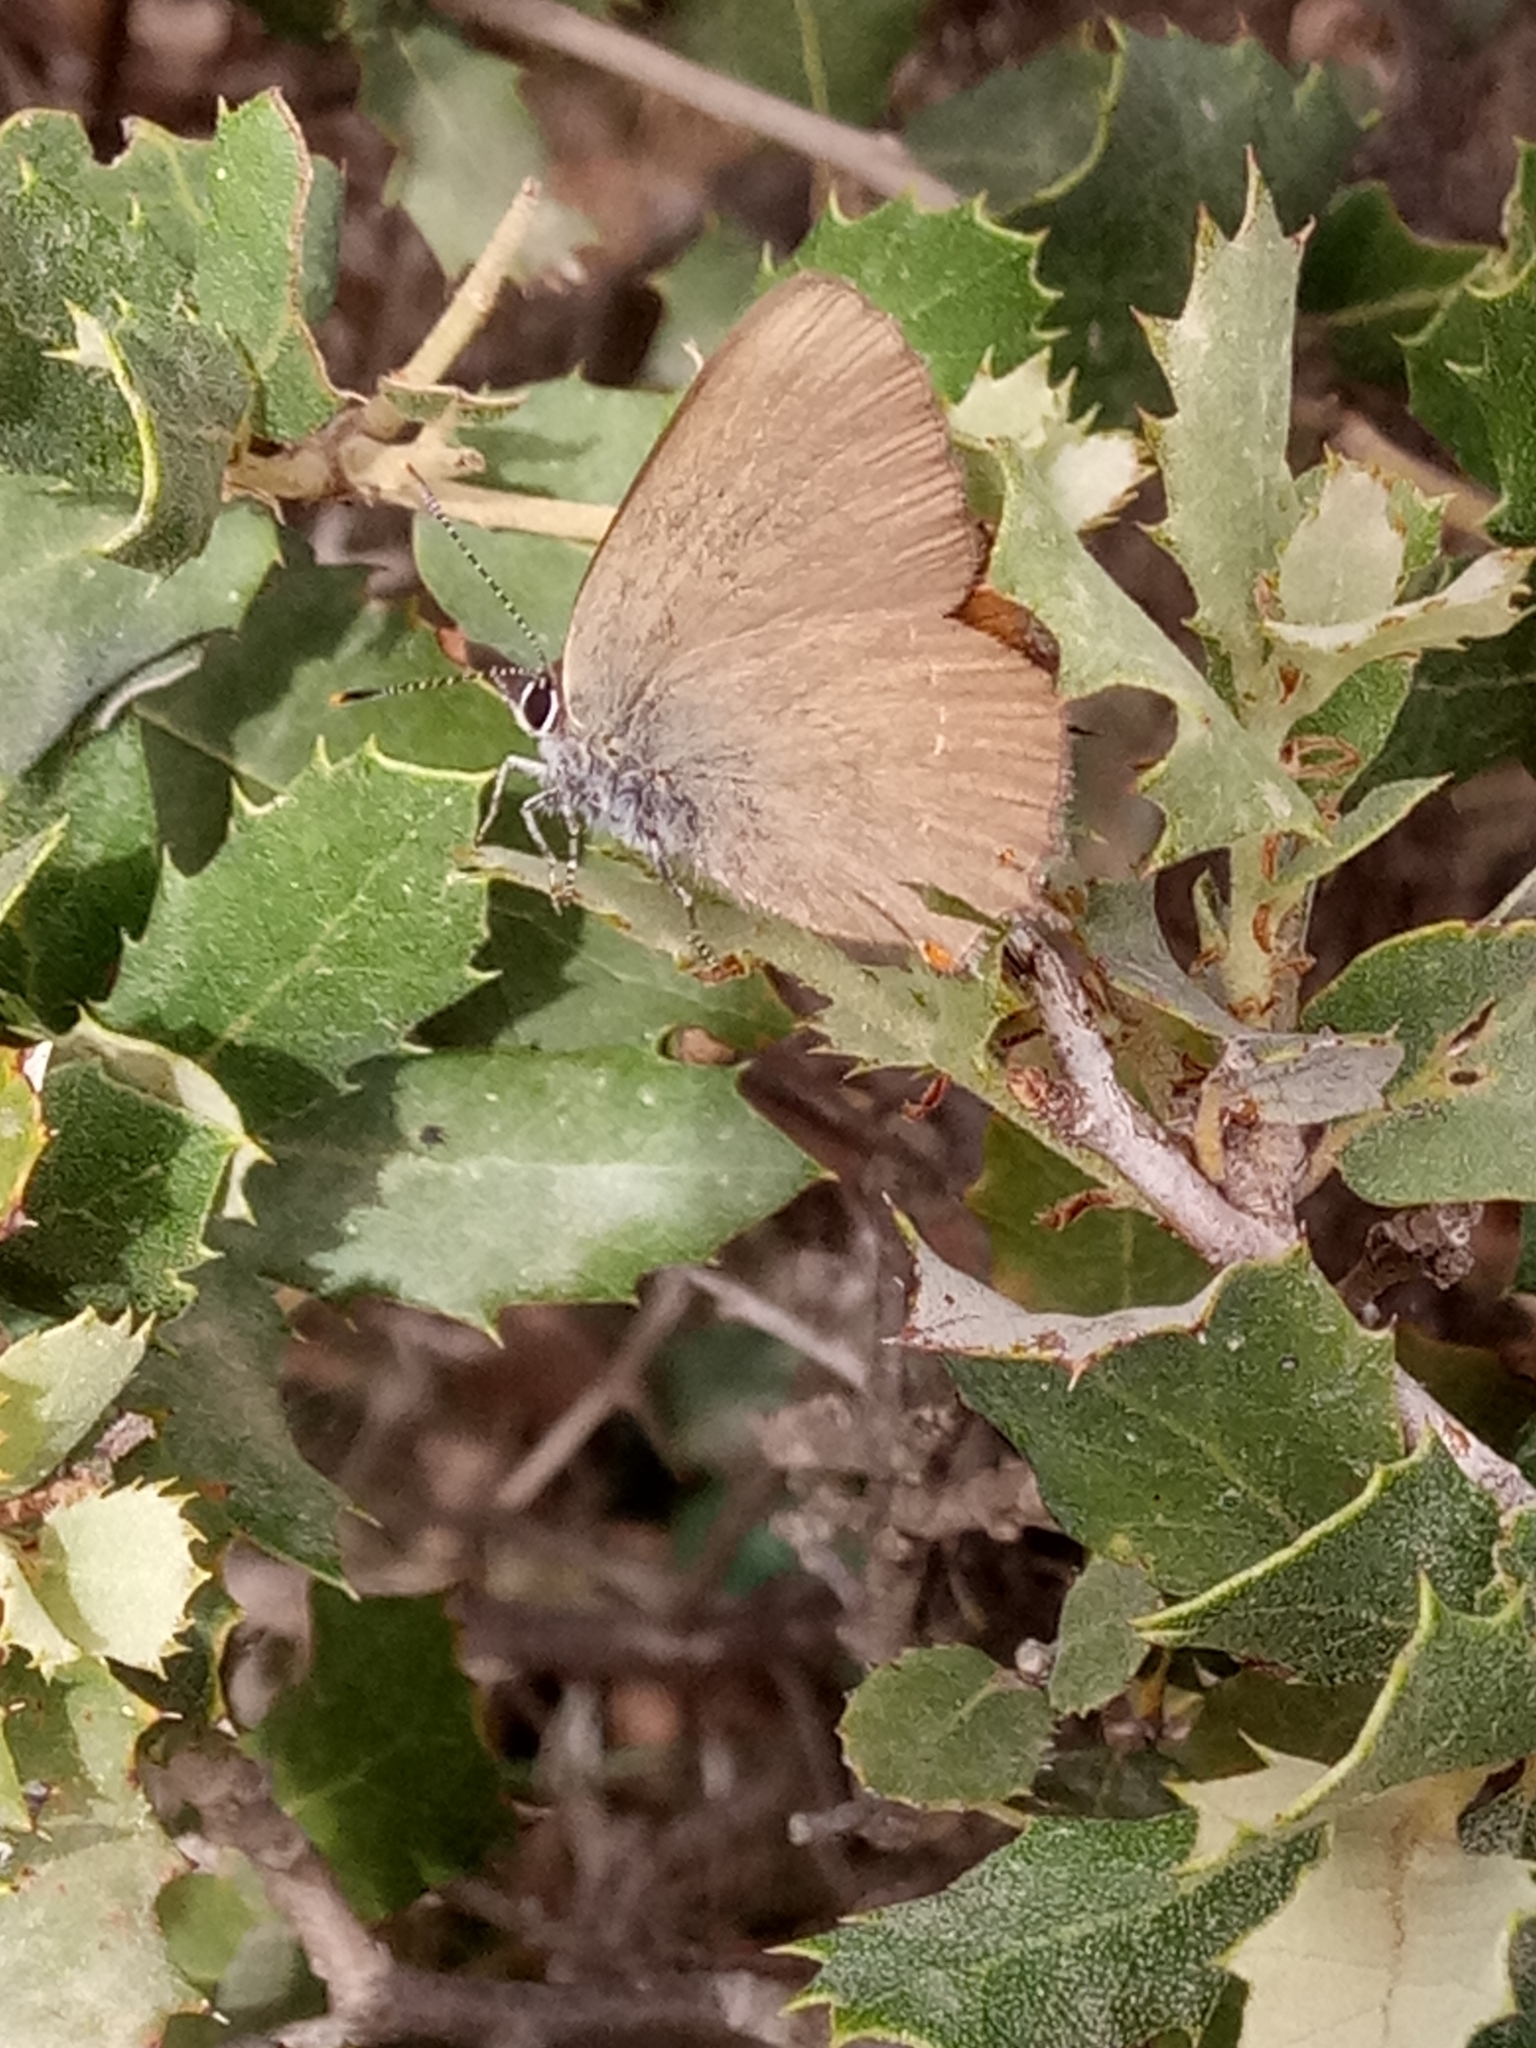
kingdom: Animalia
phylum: Arthropoda
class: Insecta
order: Lepidoptera
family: Lycaenidae
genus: Fixsenia
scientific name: Fixsenia esculi
